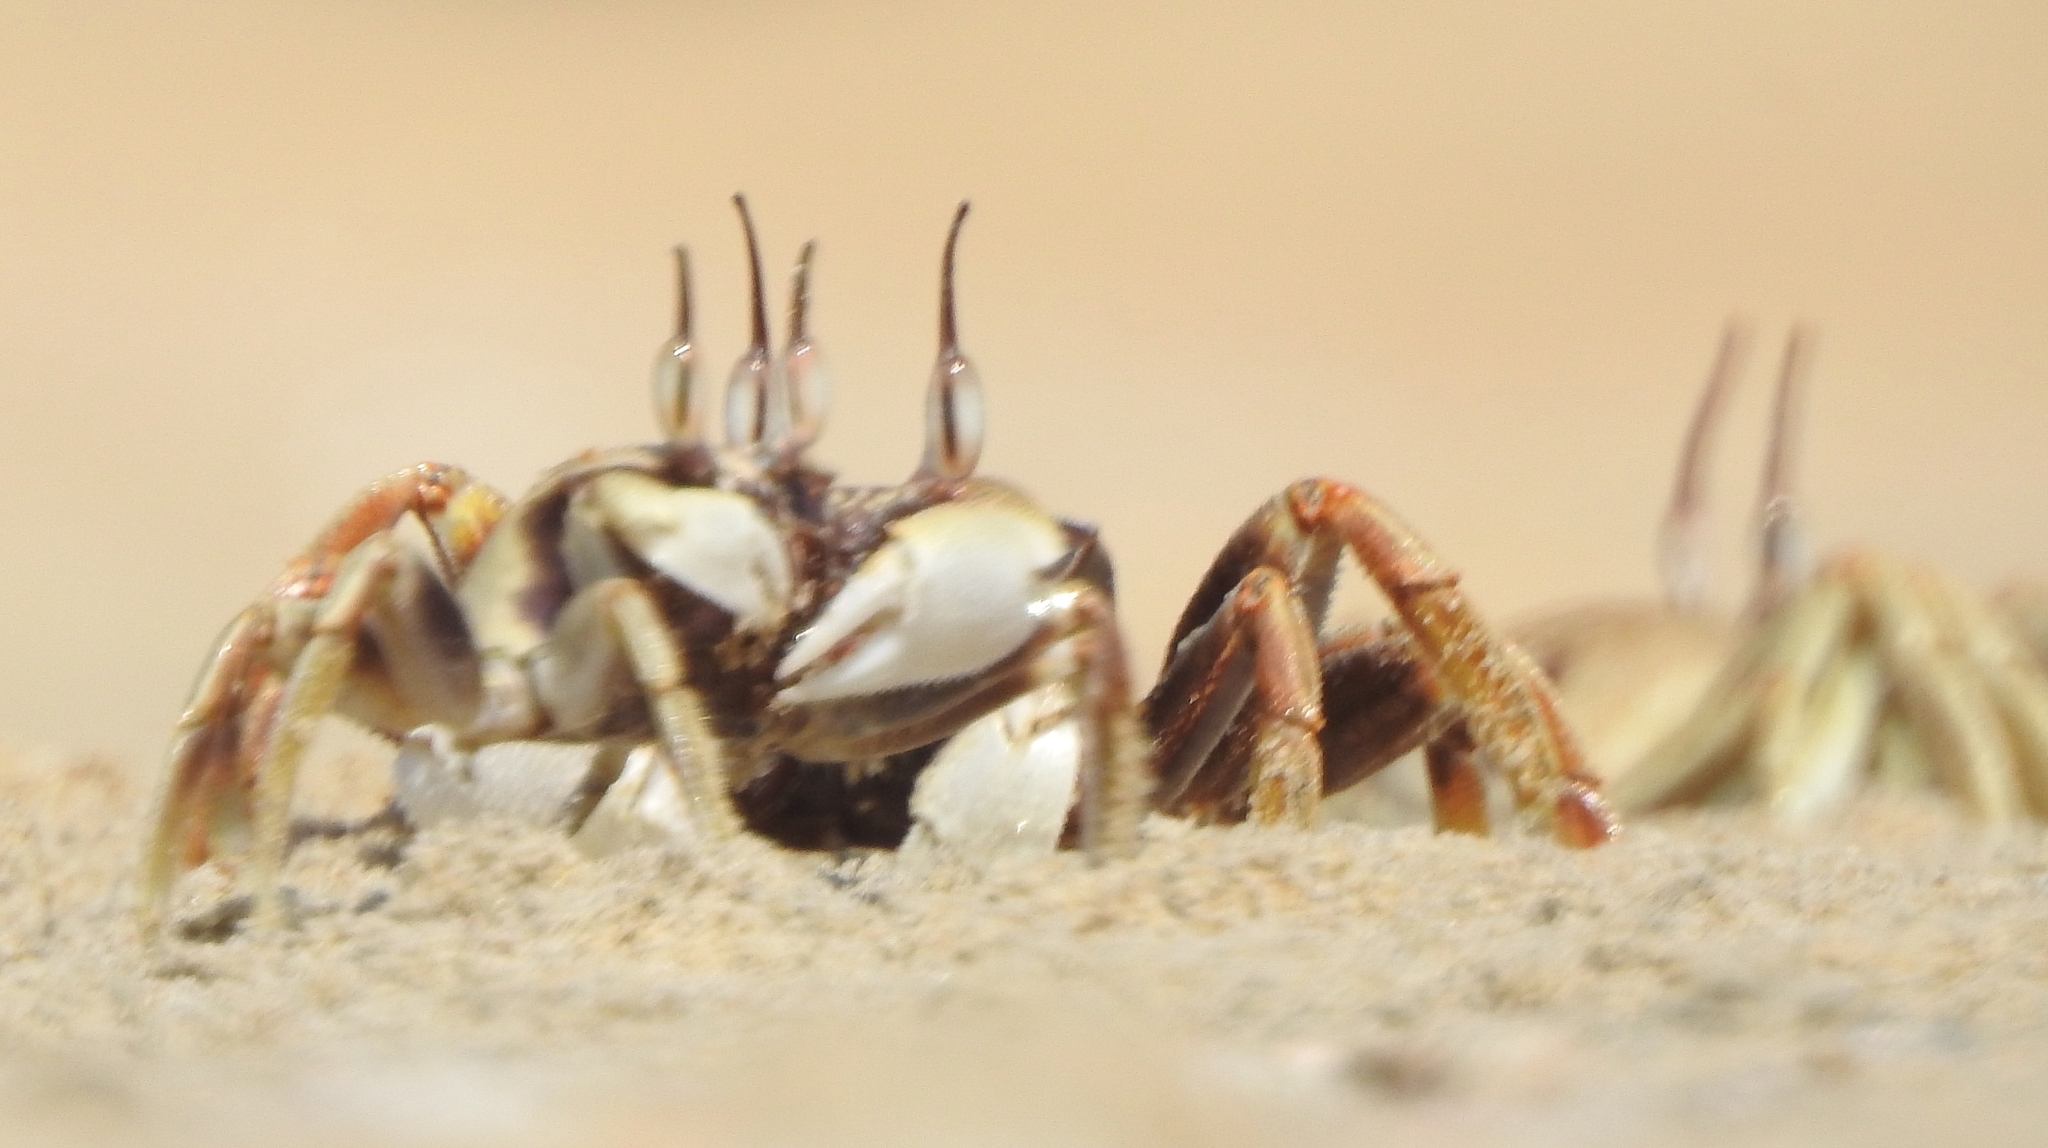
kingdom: Animalia
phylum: Arthropoda
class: Malacostraca
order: Decapoda
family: Ocypodidae
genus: Ocypode
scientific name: Ocypode ceratophthalmus
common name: Indo-pacific ghost crab
